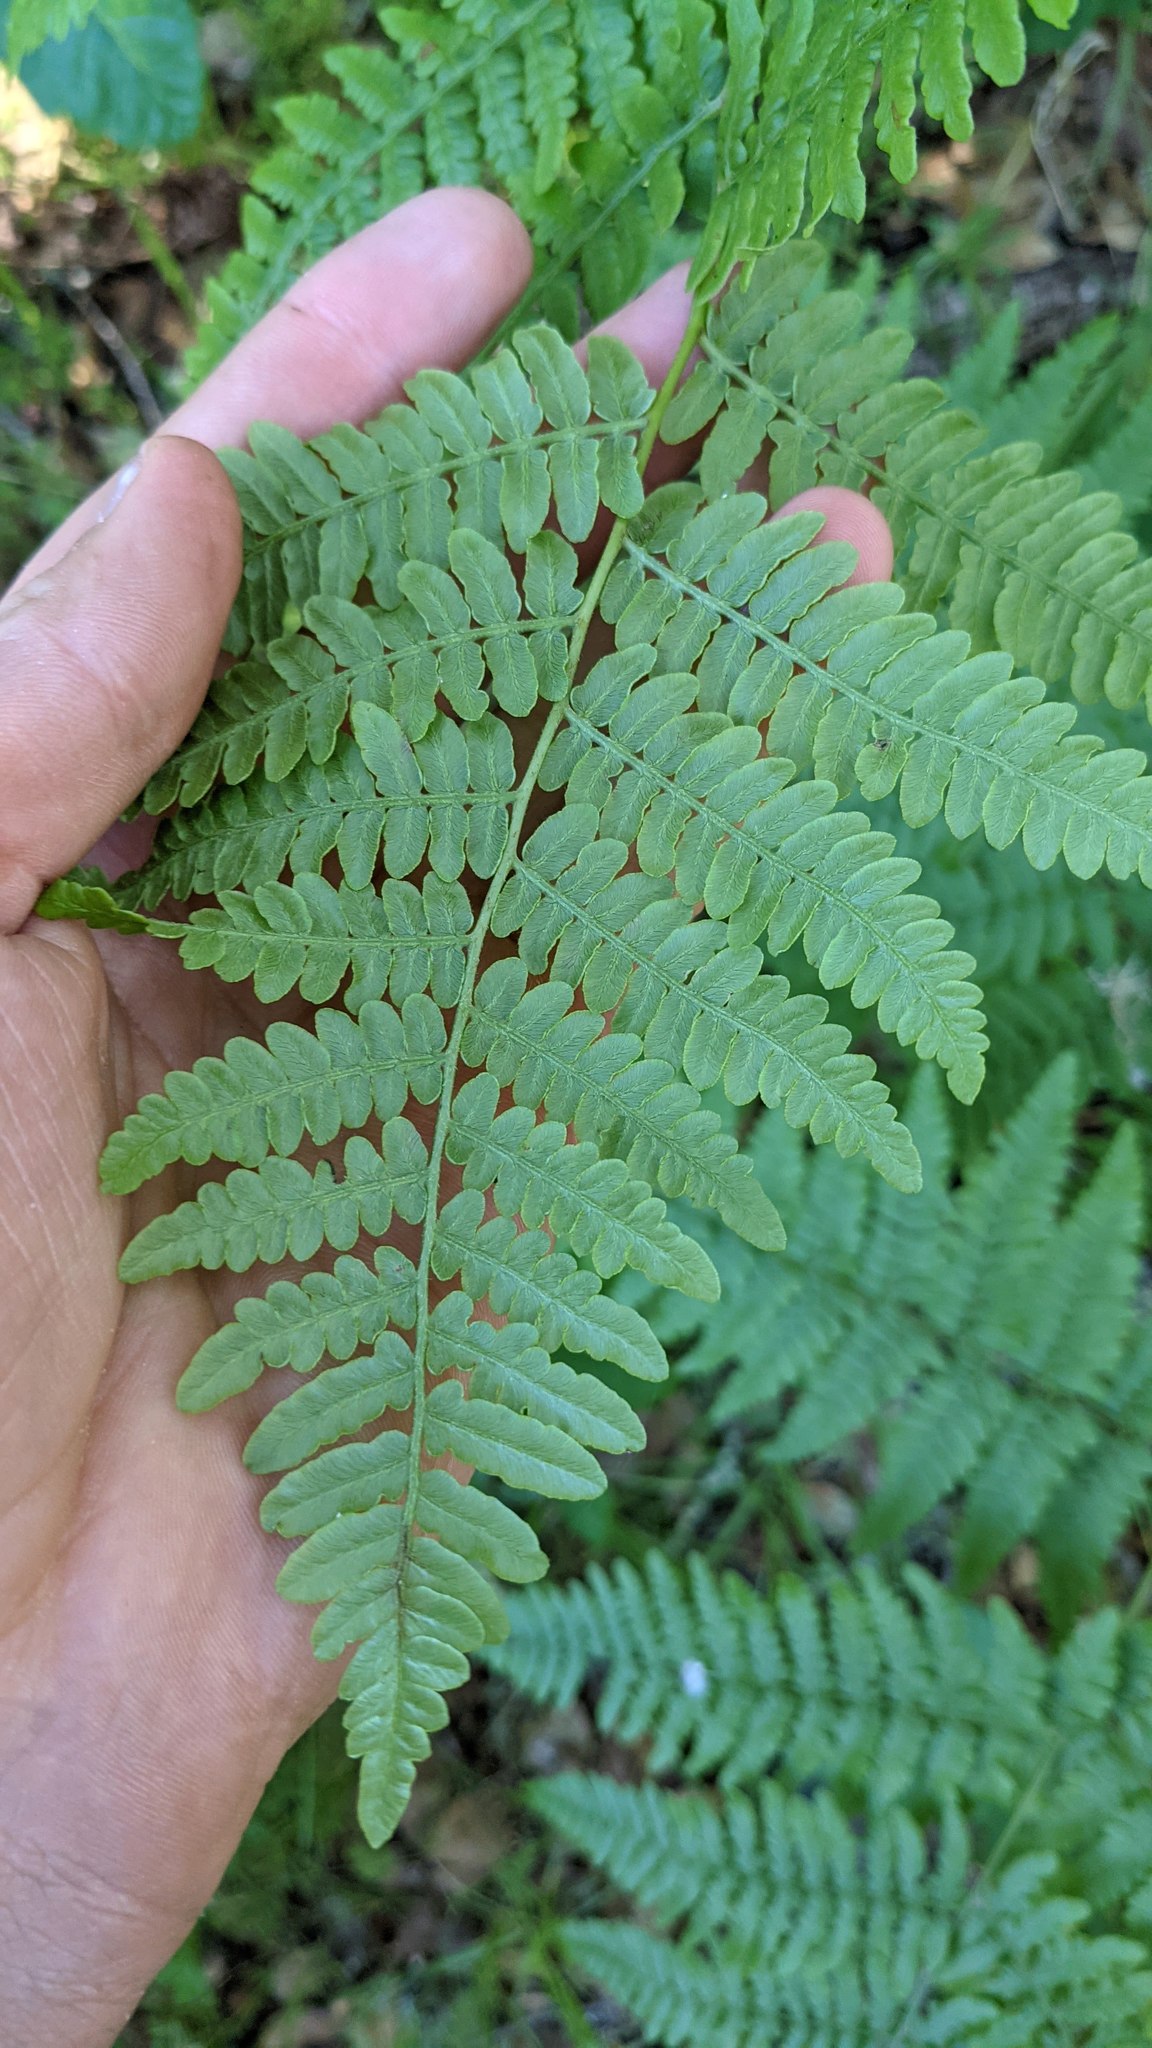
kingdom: Plantae
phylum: Tracheophyta
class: Polypodiopsida
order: Polypodiales
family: Dennstaedtiaceae
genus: Pteridium
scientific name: Pteridium aquilinum
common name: Bracken
